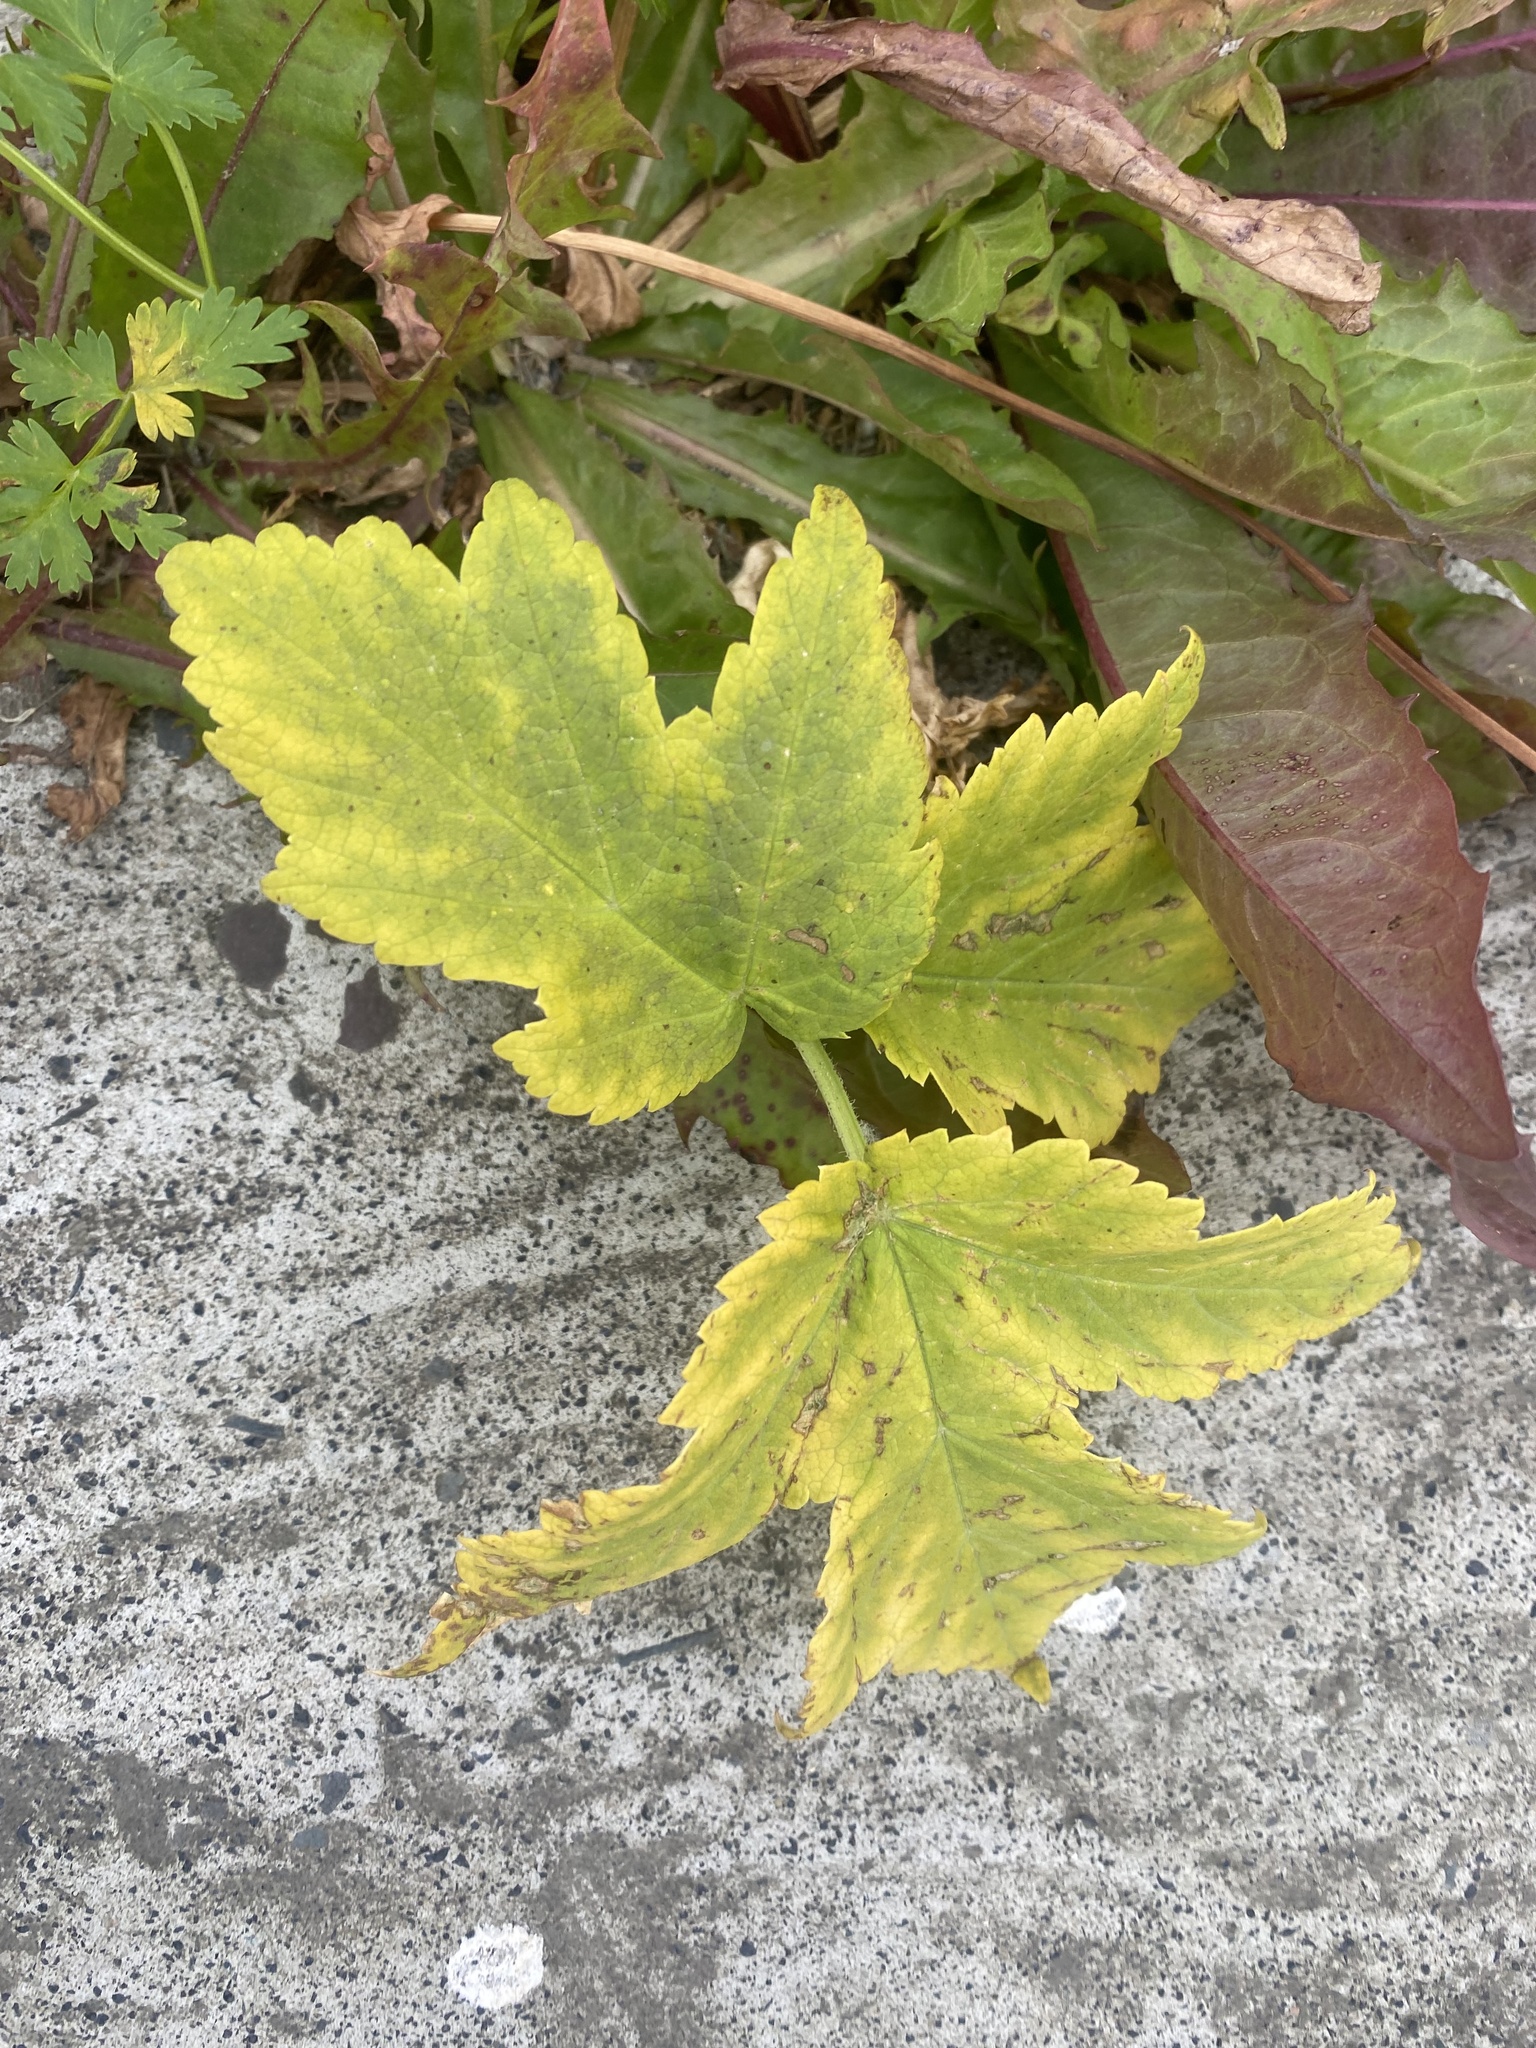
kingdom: Plantae
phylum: Tracheophyta
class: Magnoliopsida
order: Apiales
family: Apiaceae
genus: Heracleum
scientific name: Heracleum dissectum
